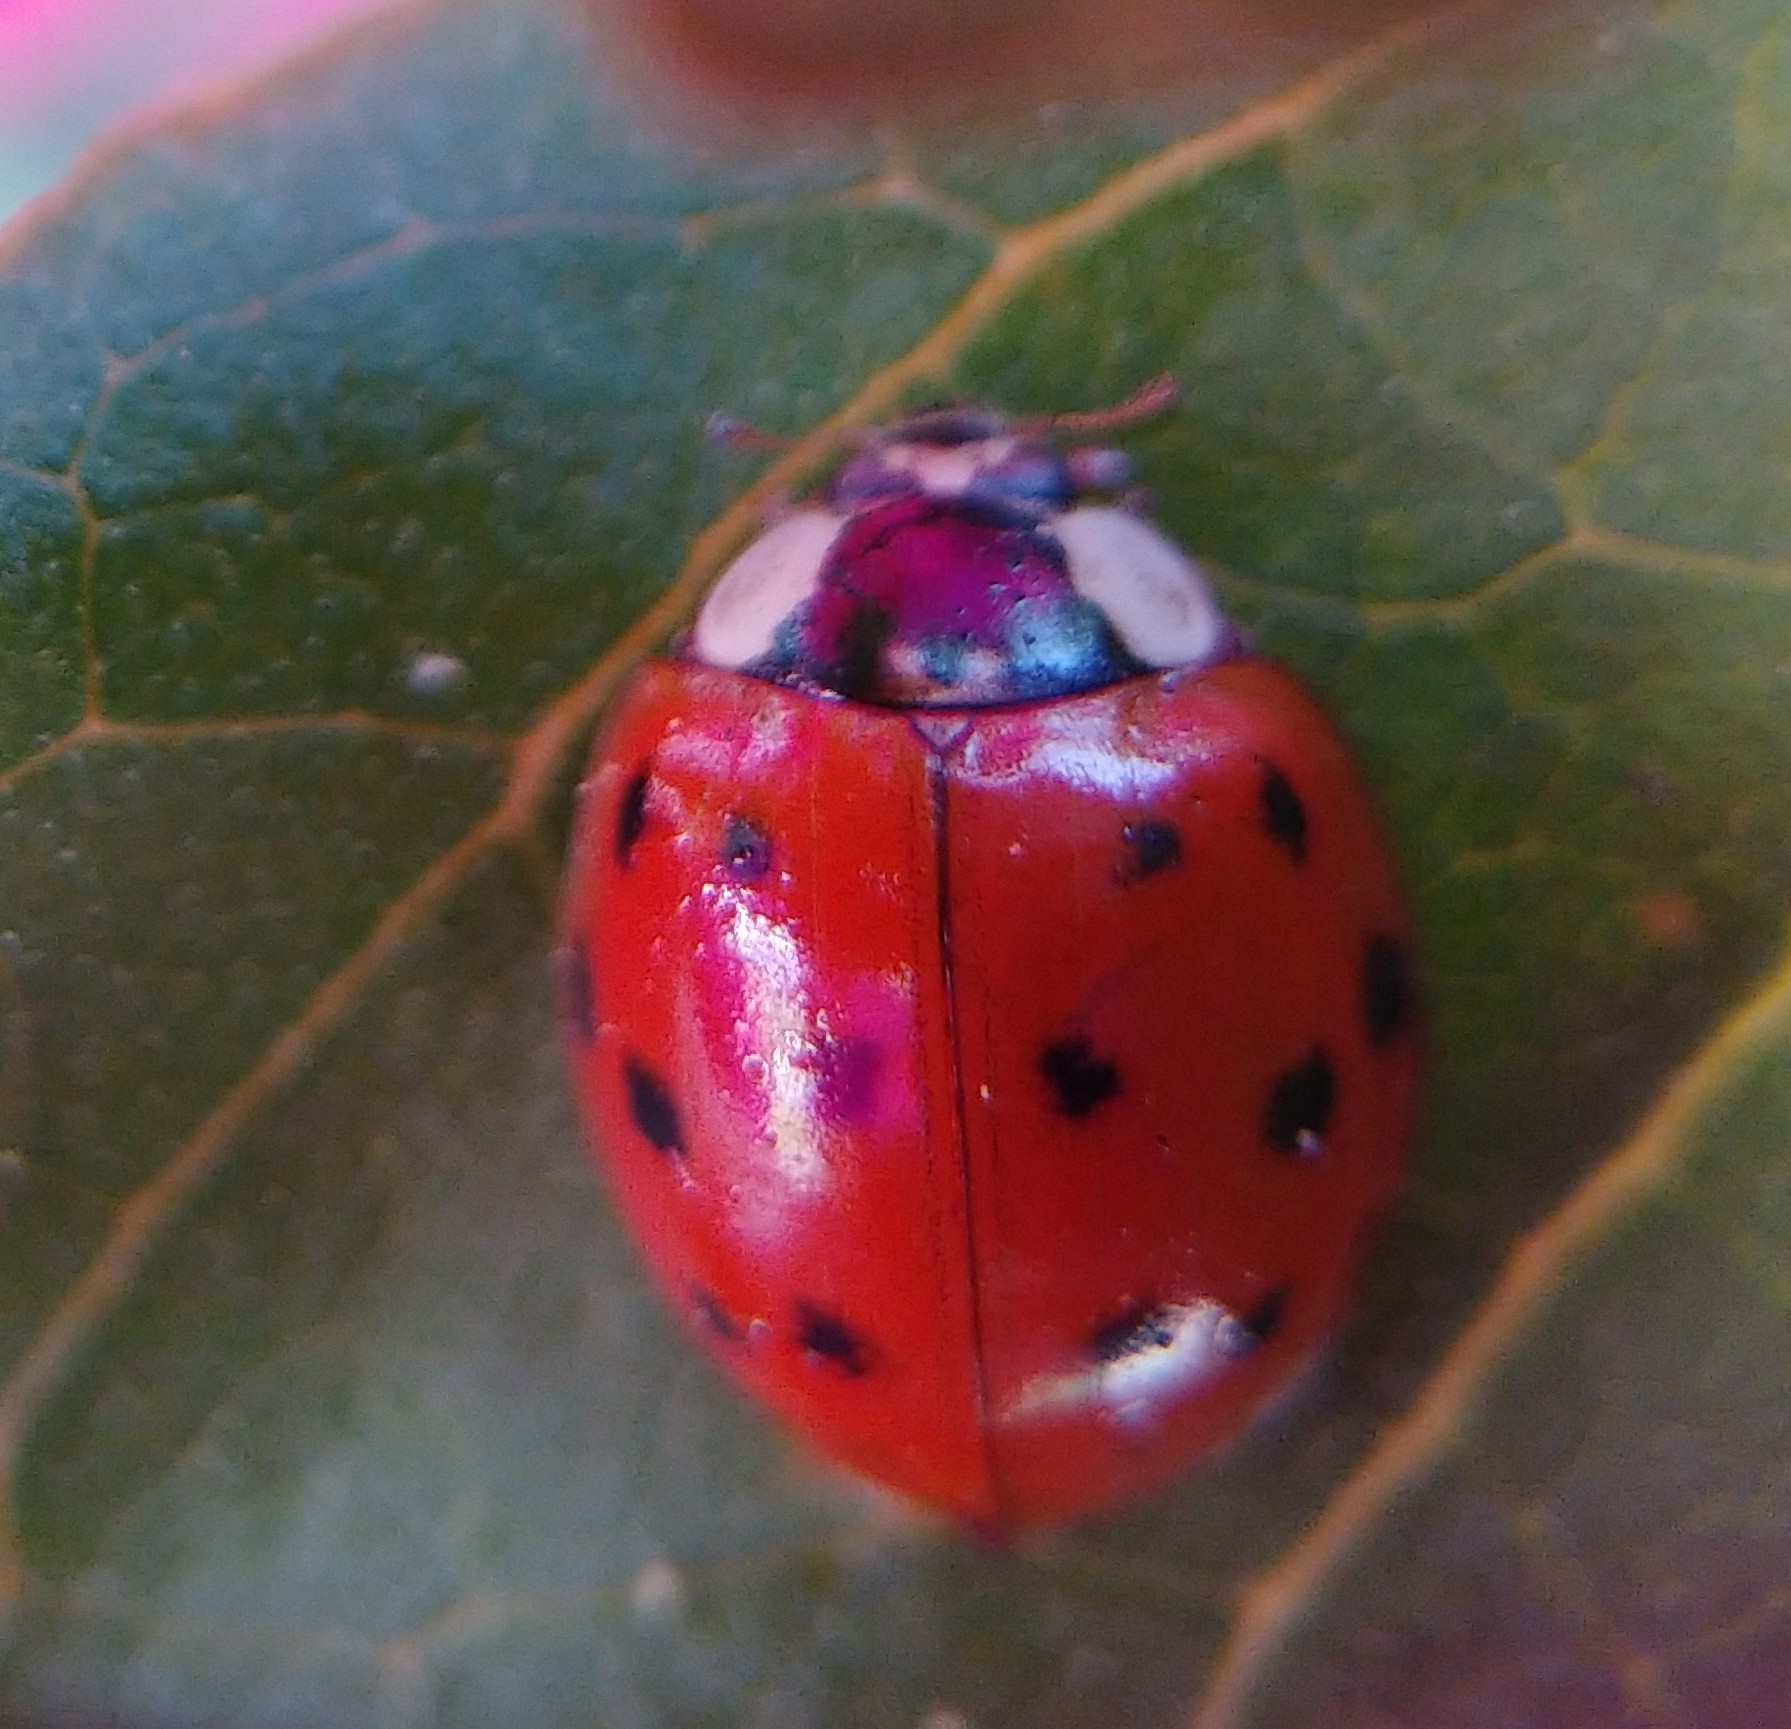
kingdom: Animalia
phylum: Arthropoda
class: Insecta
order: Coleoptera
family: Coccinellidae
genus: Harmonia
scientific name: Harmonia axyridis
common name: Harlequin ladybird
